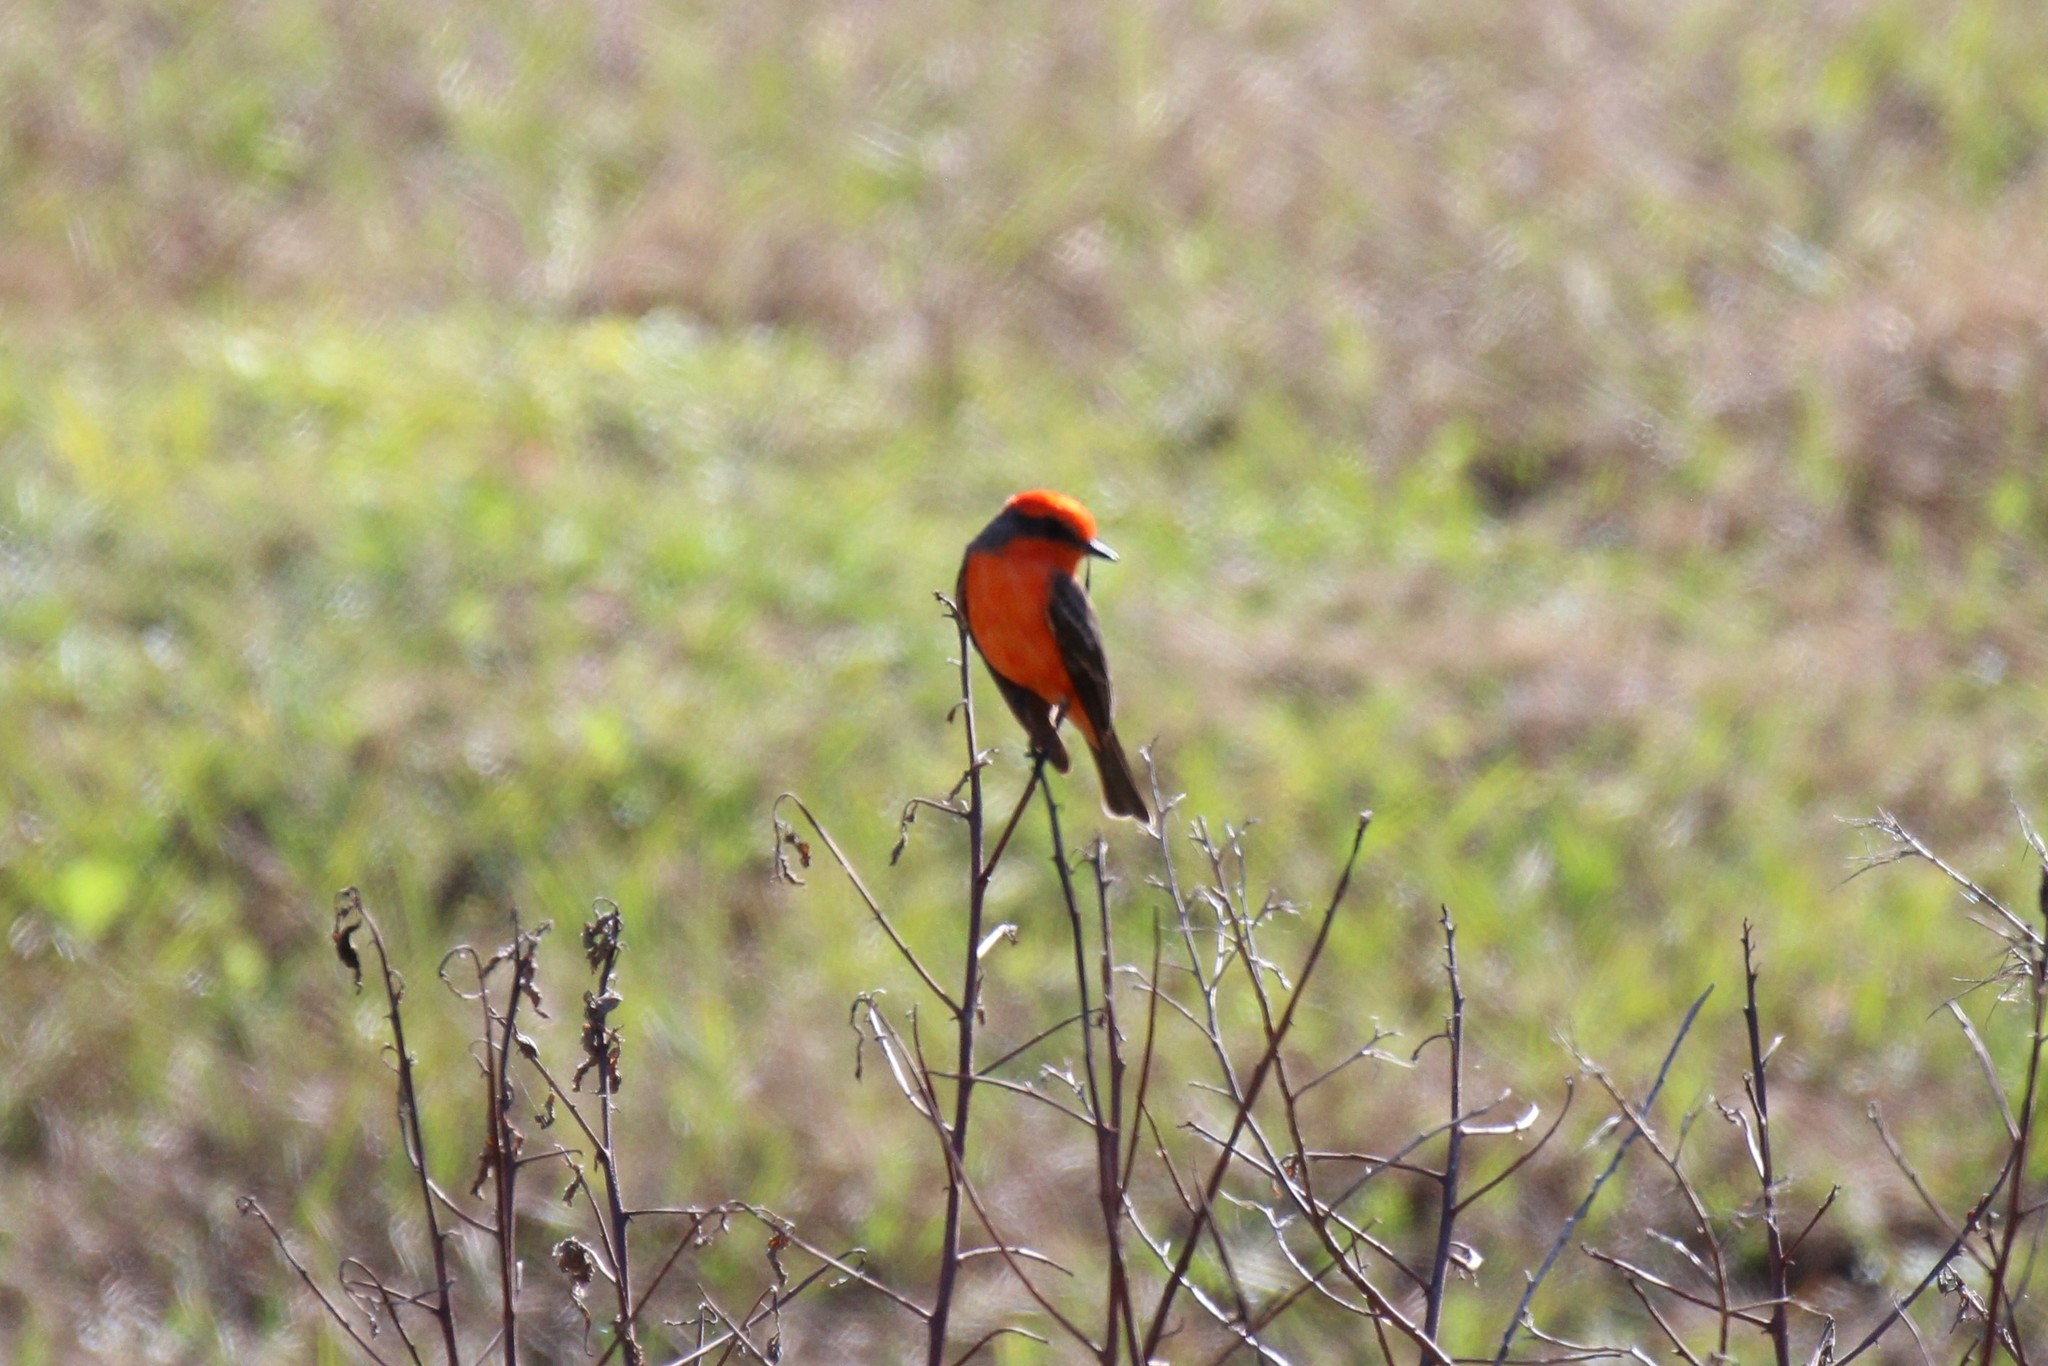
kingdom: Animalia
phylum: Chordata
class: Aves
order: Passeriformes
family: Tyrannidae
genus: Pyrocephalus
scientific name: Pyrocephalus rubinus
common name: Vermilion flycatcher
